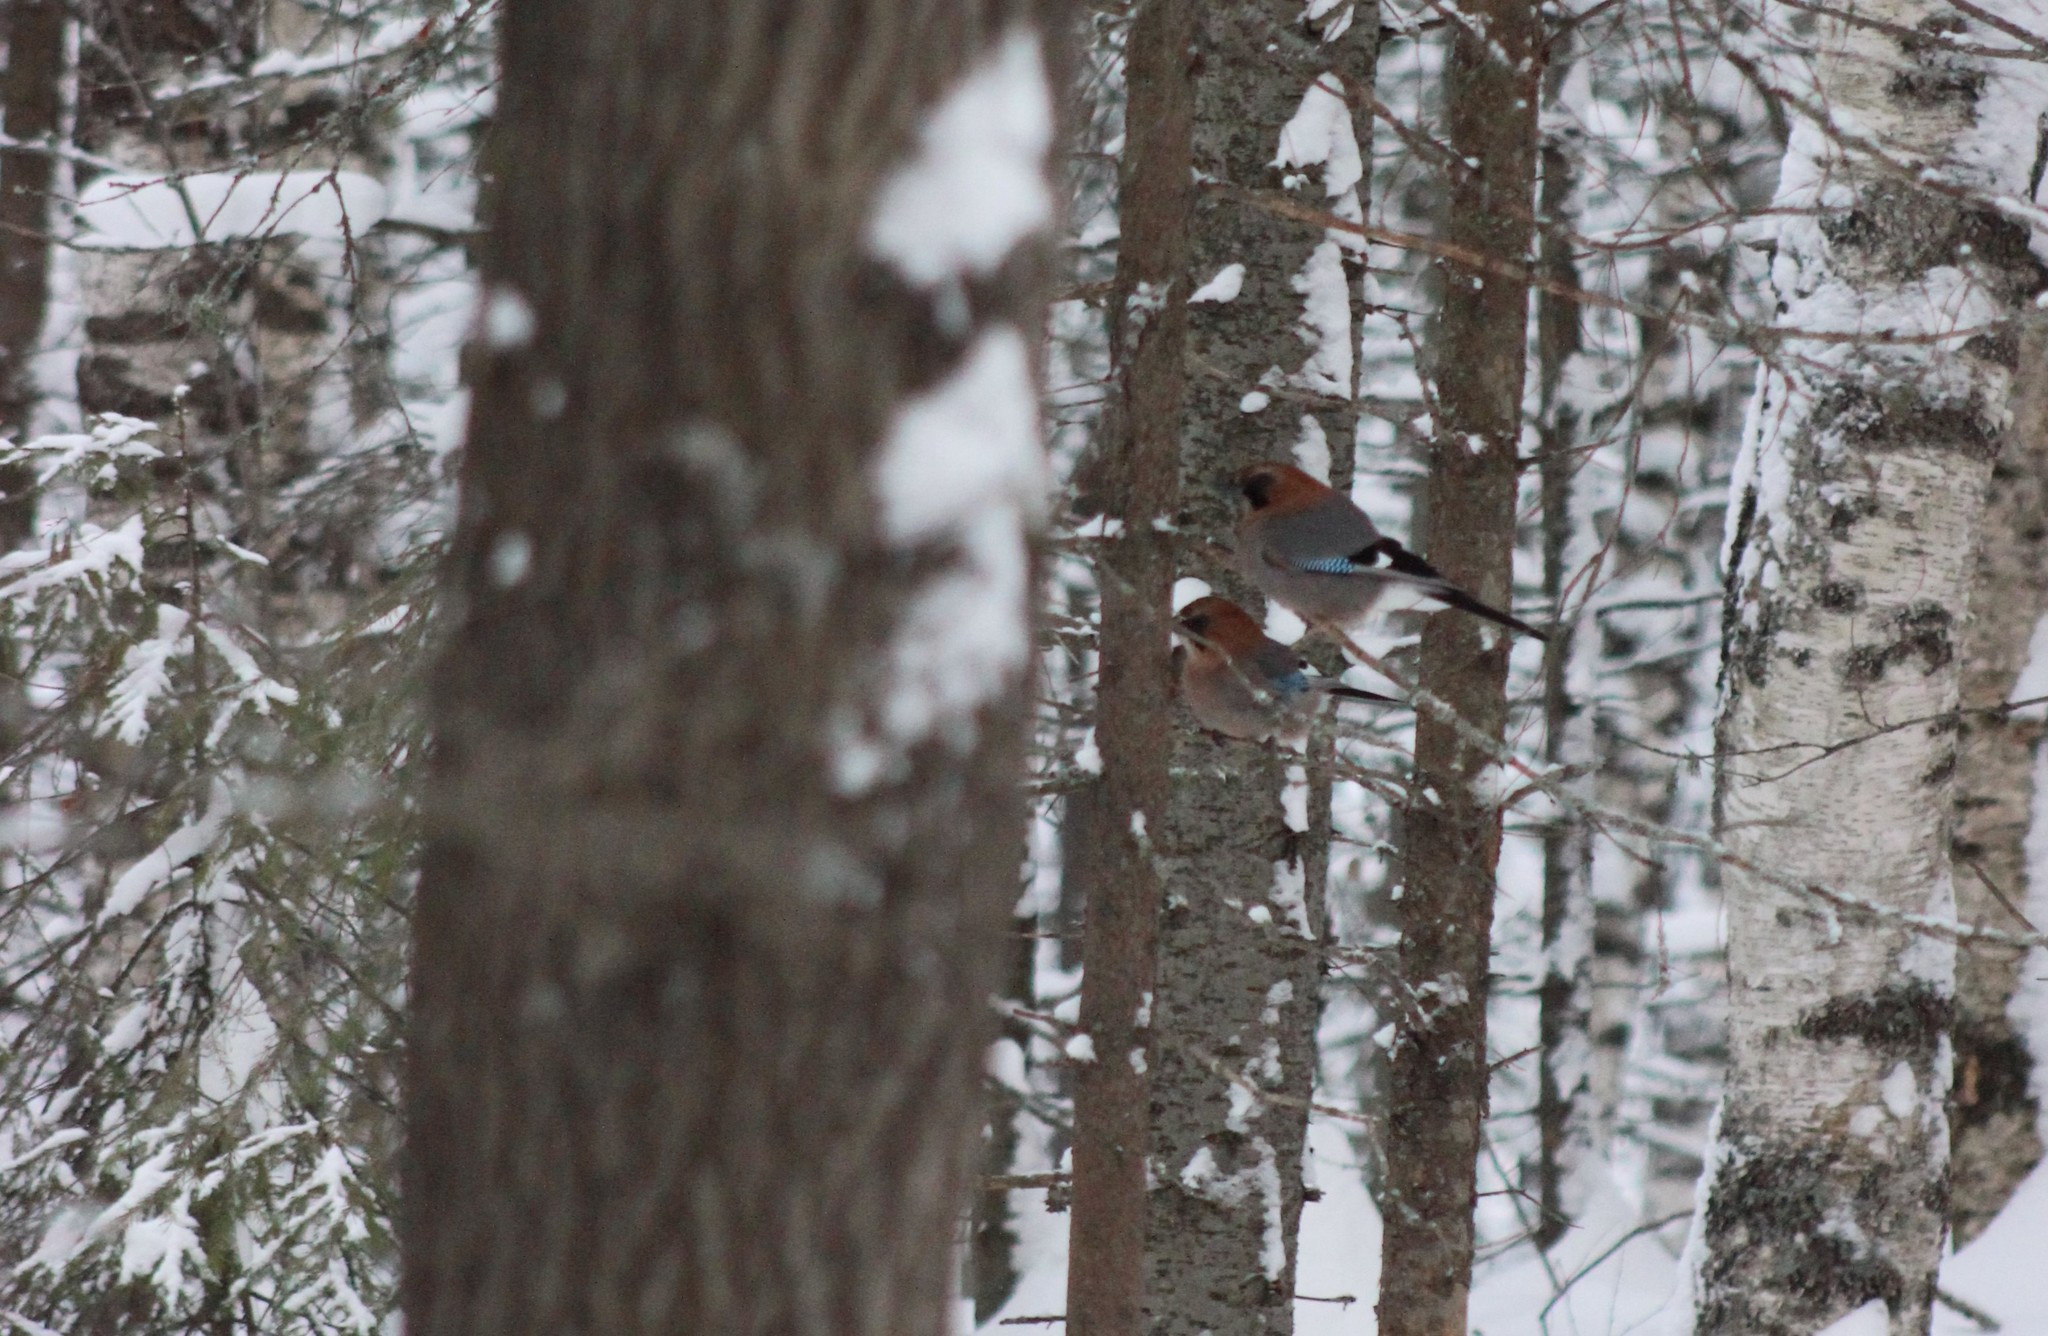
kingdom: Animalia
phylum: Chordata
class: Aves
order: Passeriformes
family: Corvidae
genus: Garrulus
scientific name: Garrulus glandarius
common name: Eurasian jay
